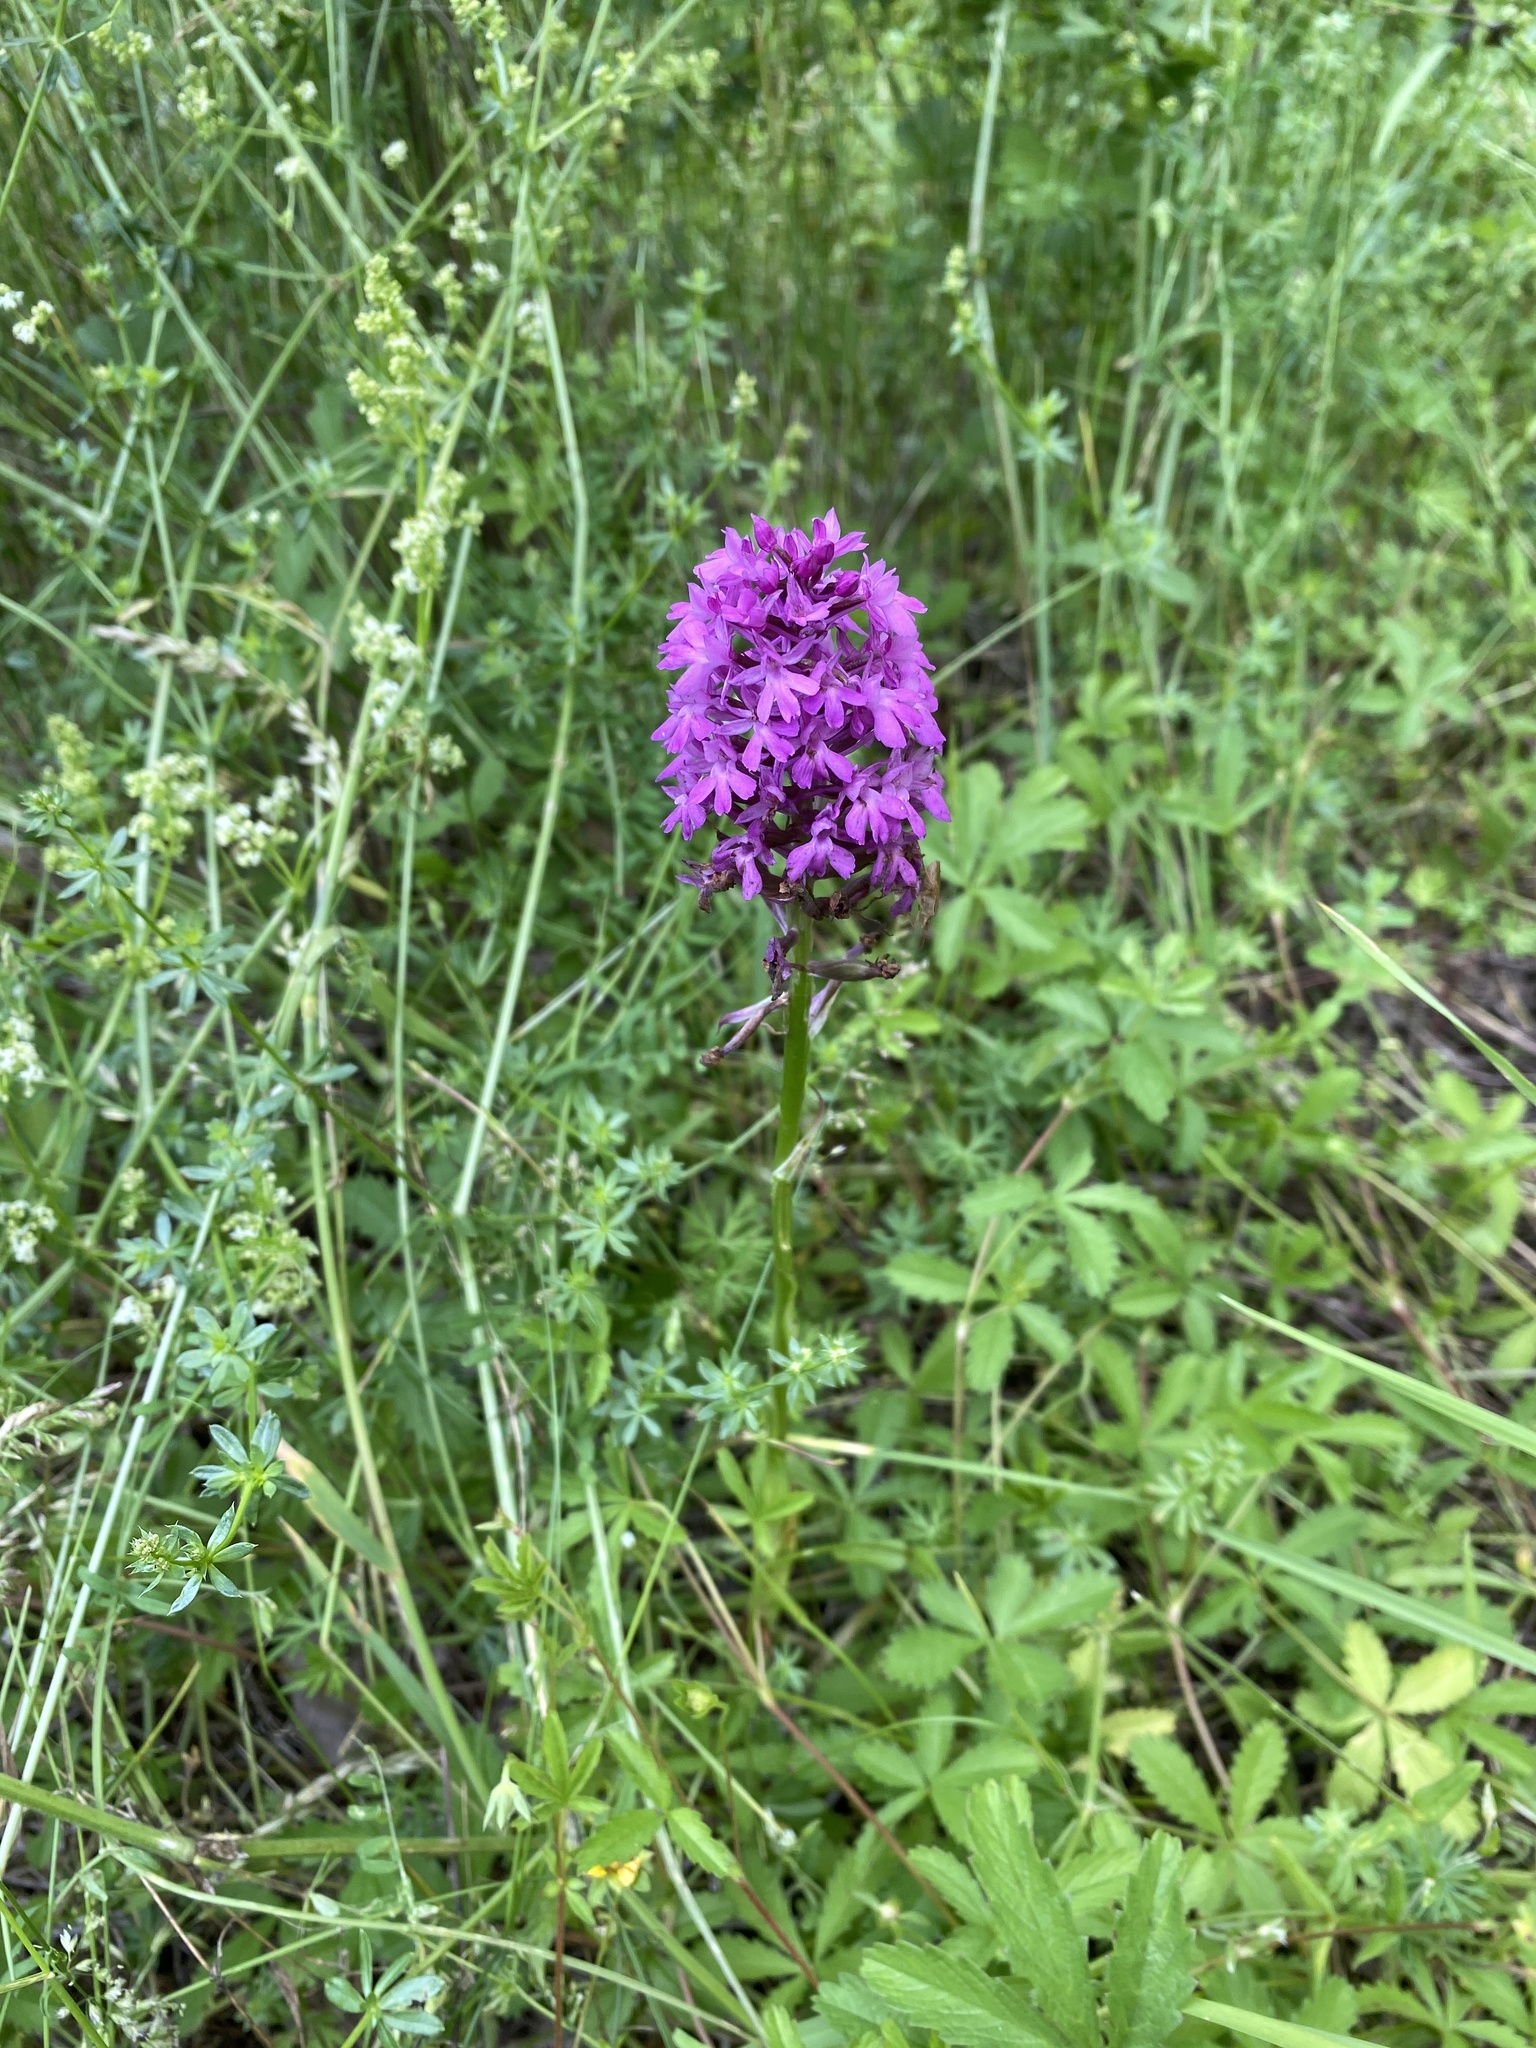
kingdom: Plantae
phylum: Tracheophyta
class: Liliopsida
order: Asparagales
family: Orchidaceae
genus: Anacamptis
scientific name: Anacamptis pyramidalis
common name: Pyramidal orchid
